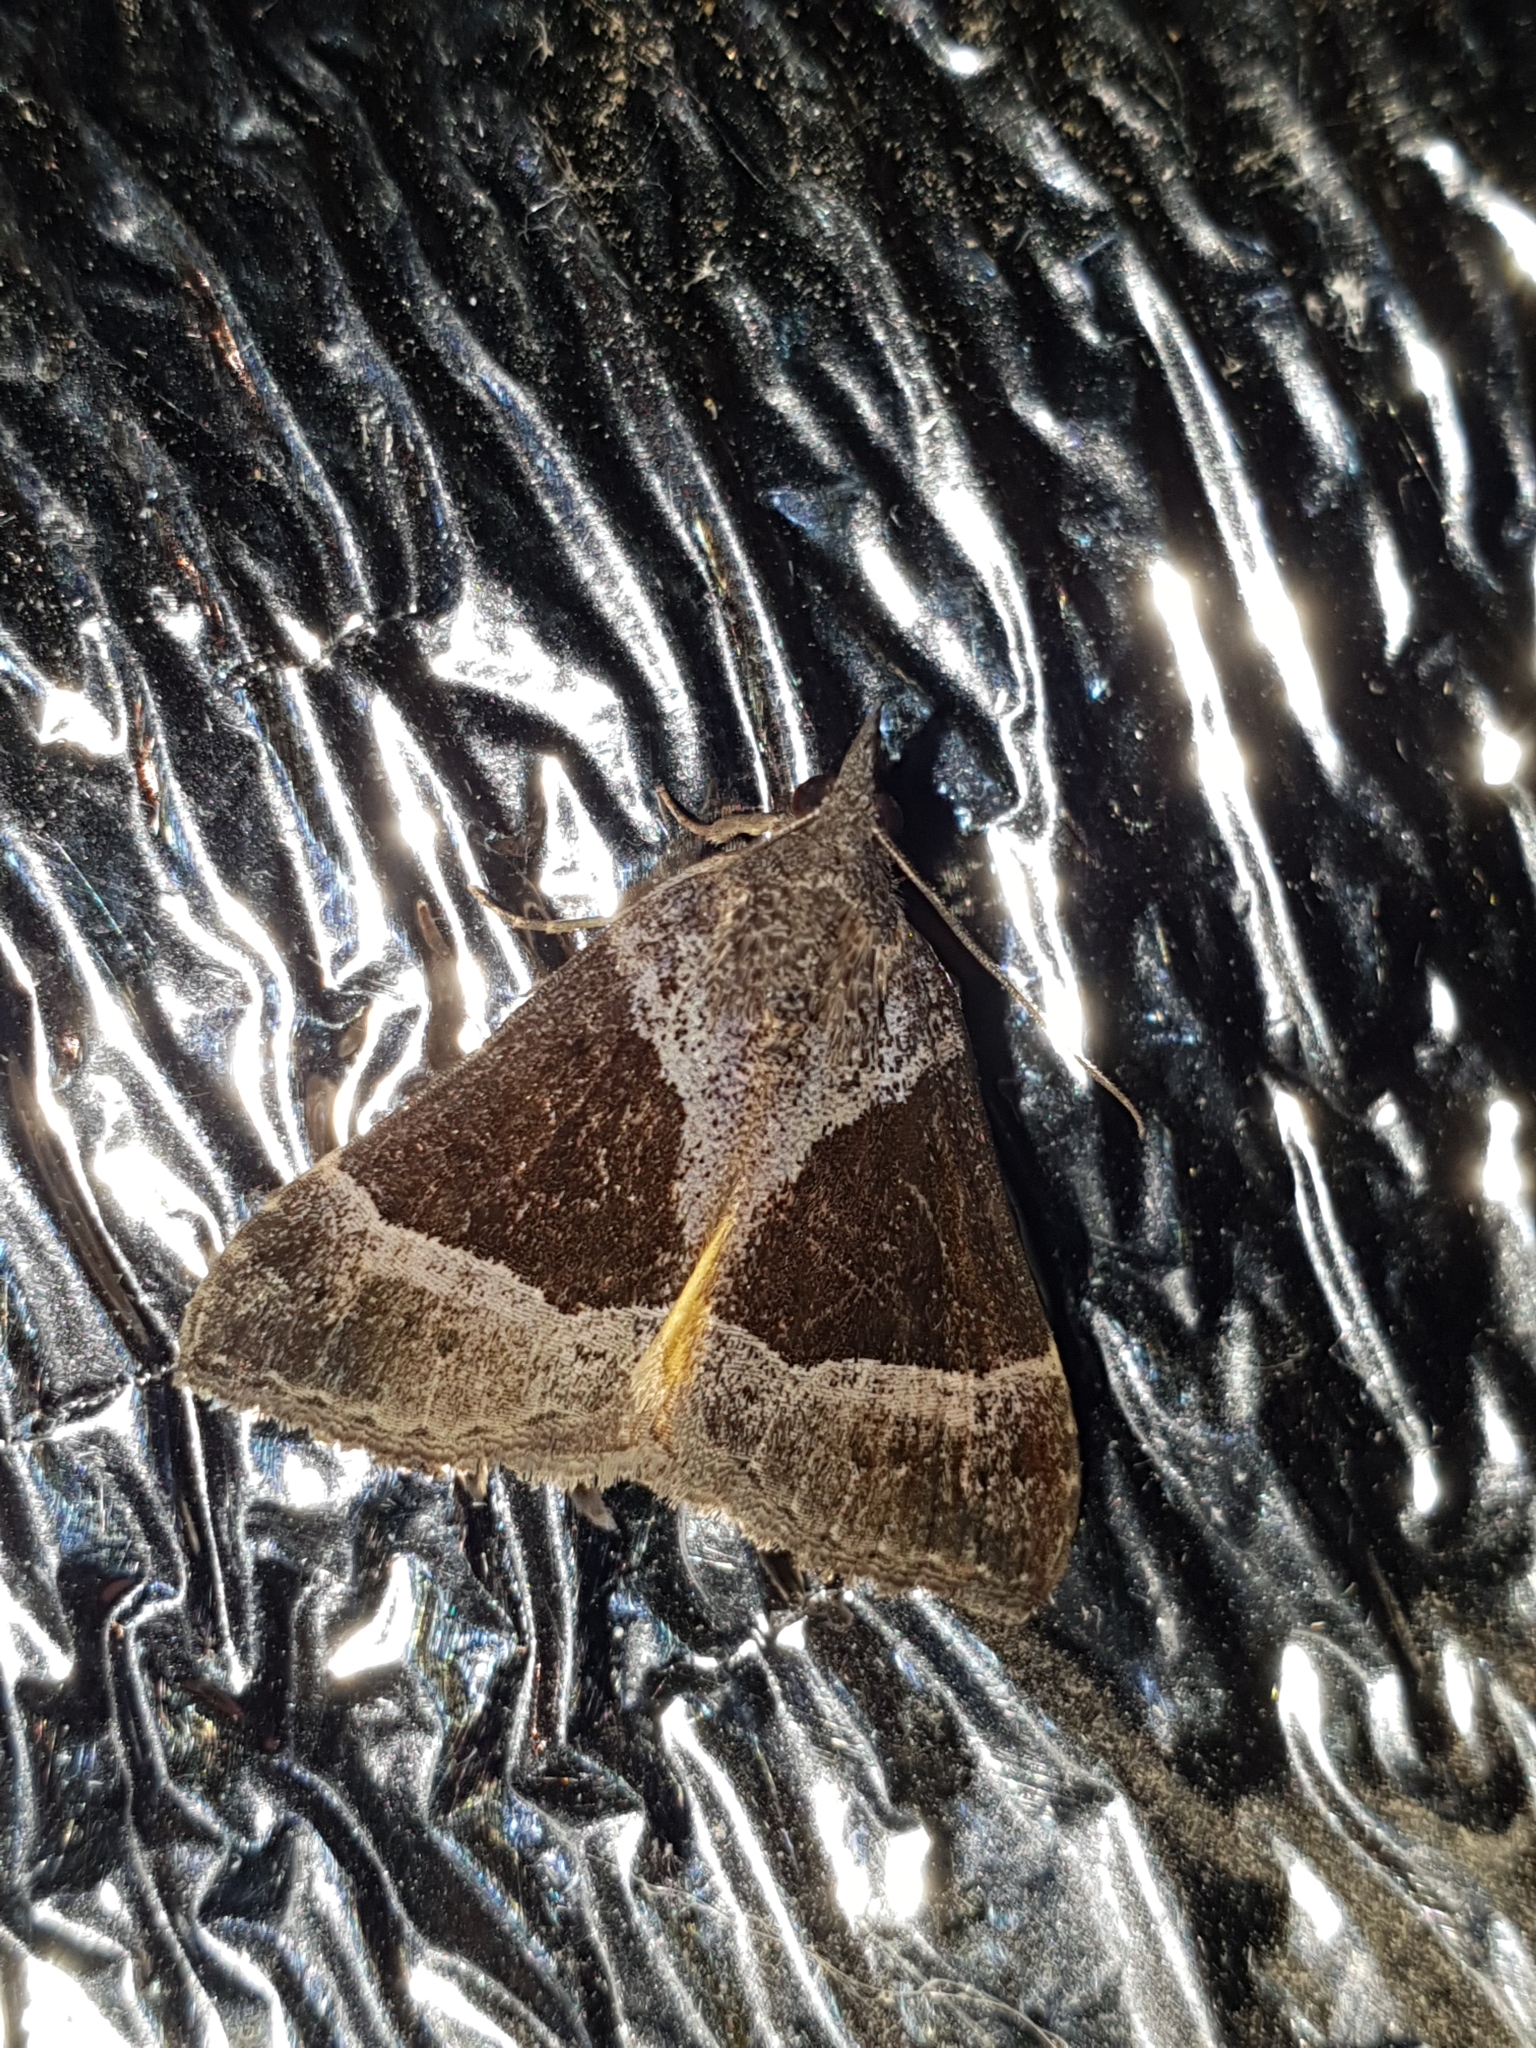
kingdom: Animalia
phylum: Arthropoda
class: Insecta
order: Lepidoptera
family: Erebidae
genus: Hypena
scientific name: Hypena opulenta
